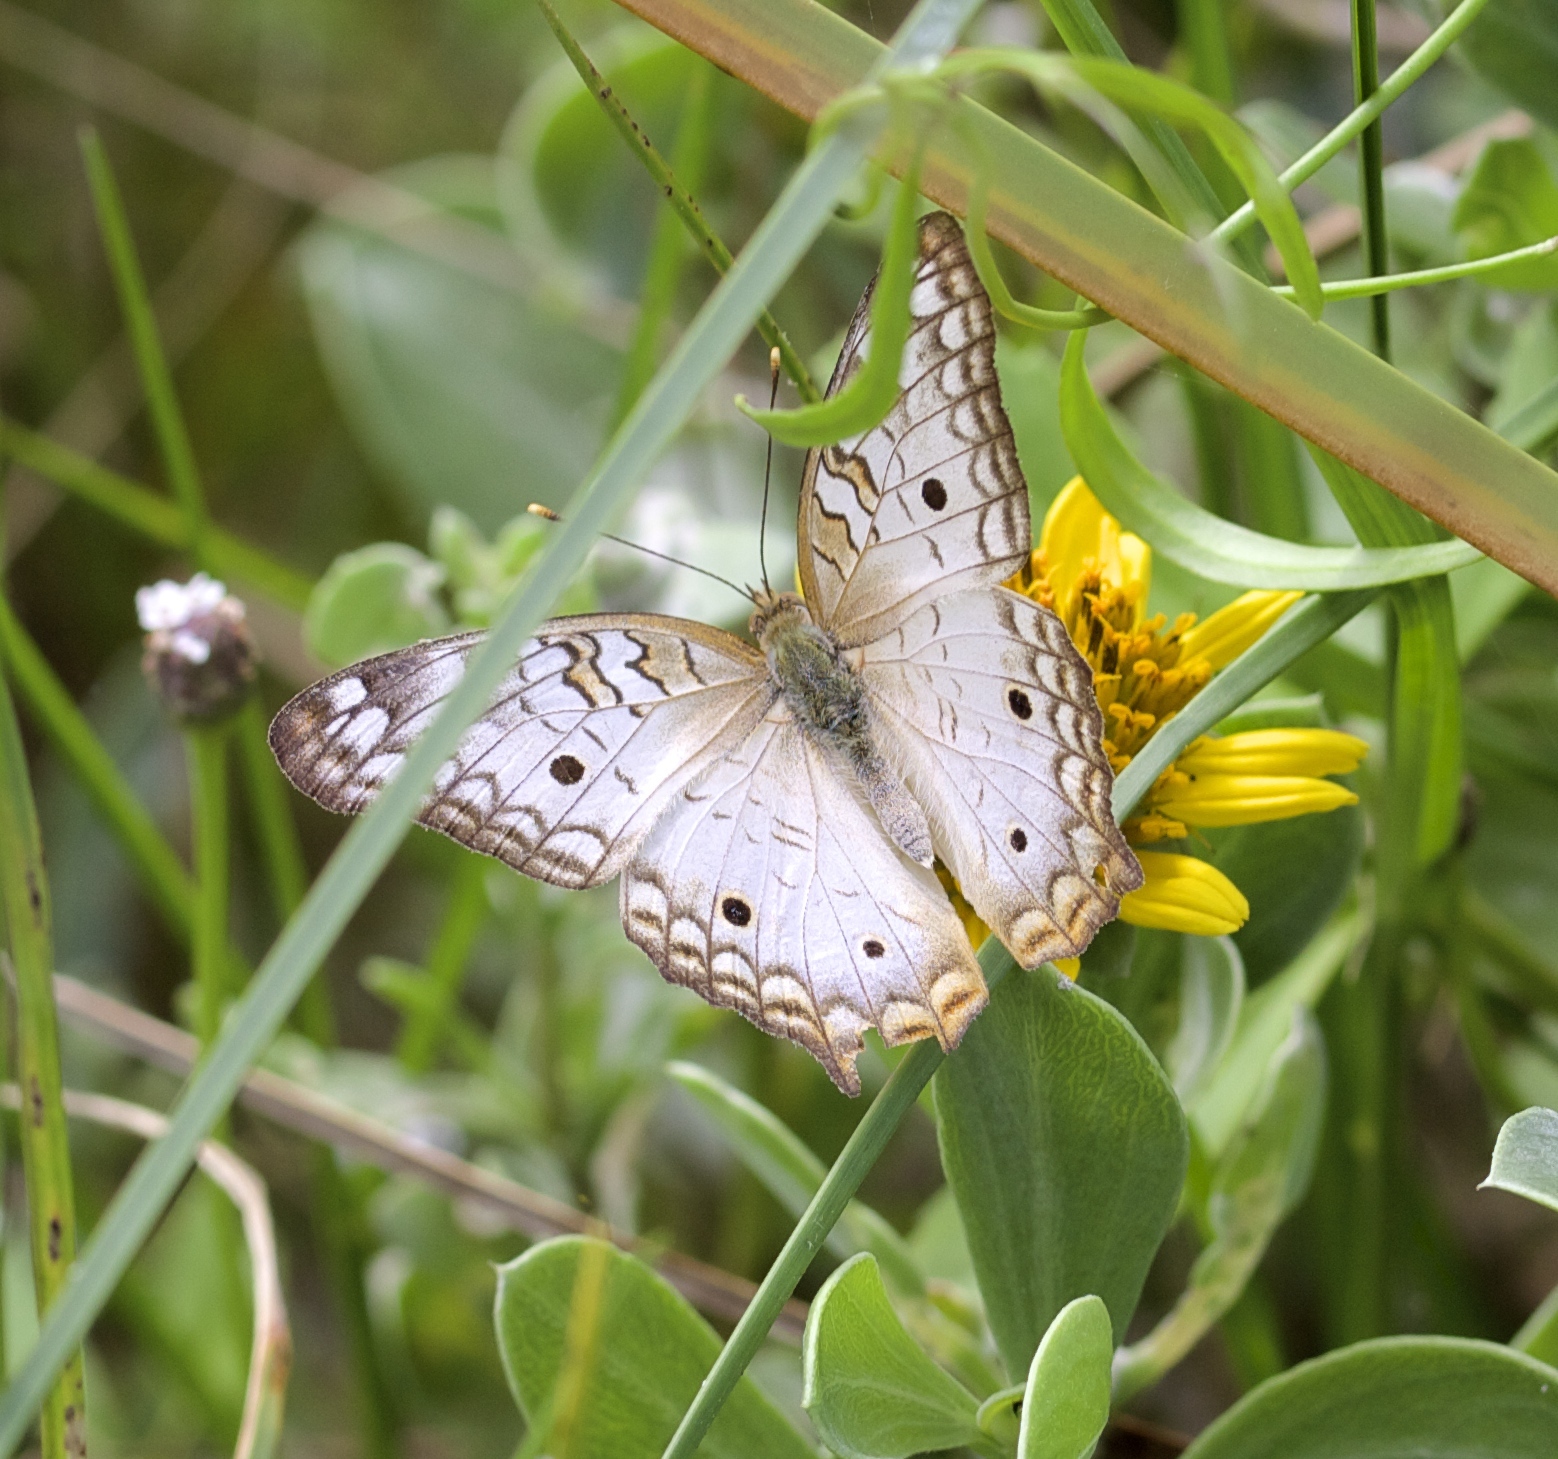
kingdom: Animalia
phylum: Arthropoda
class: Insecta
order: Lepidoptera
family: Nymphalidae
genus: Anartia
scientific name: Anartia jatrophae
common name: White peacock
